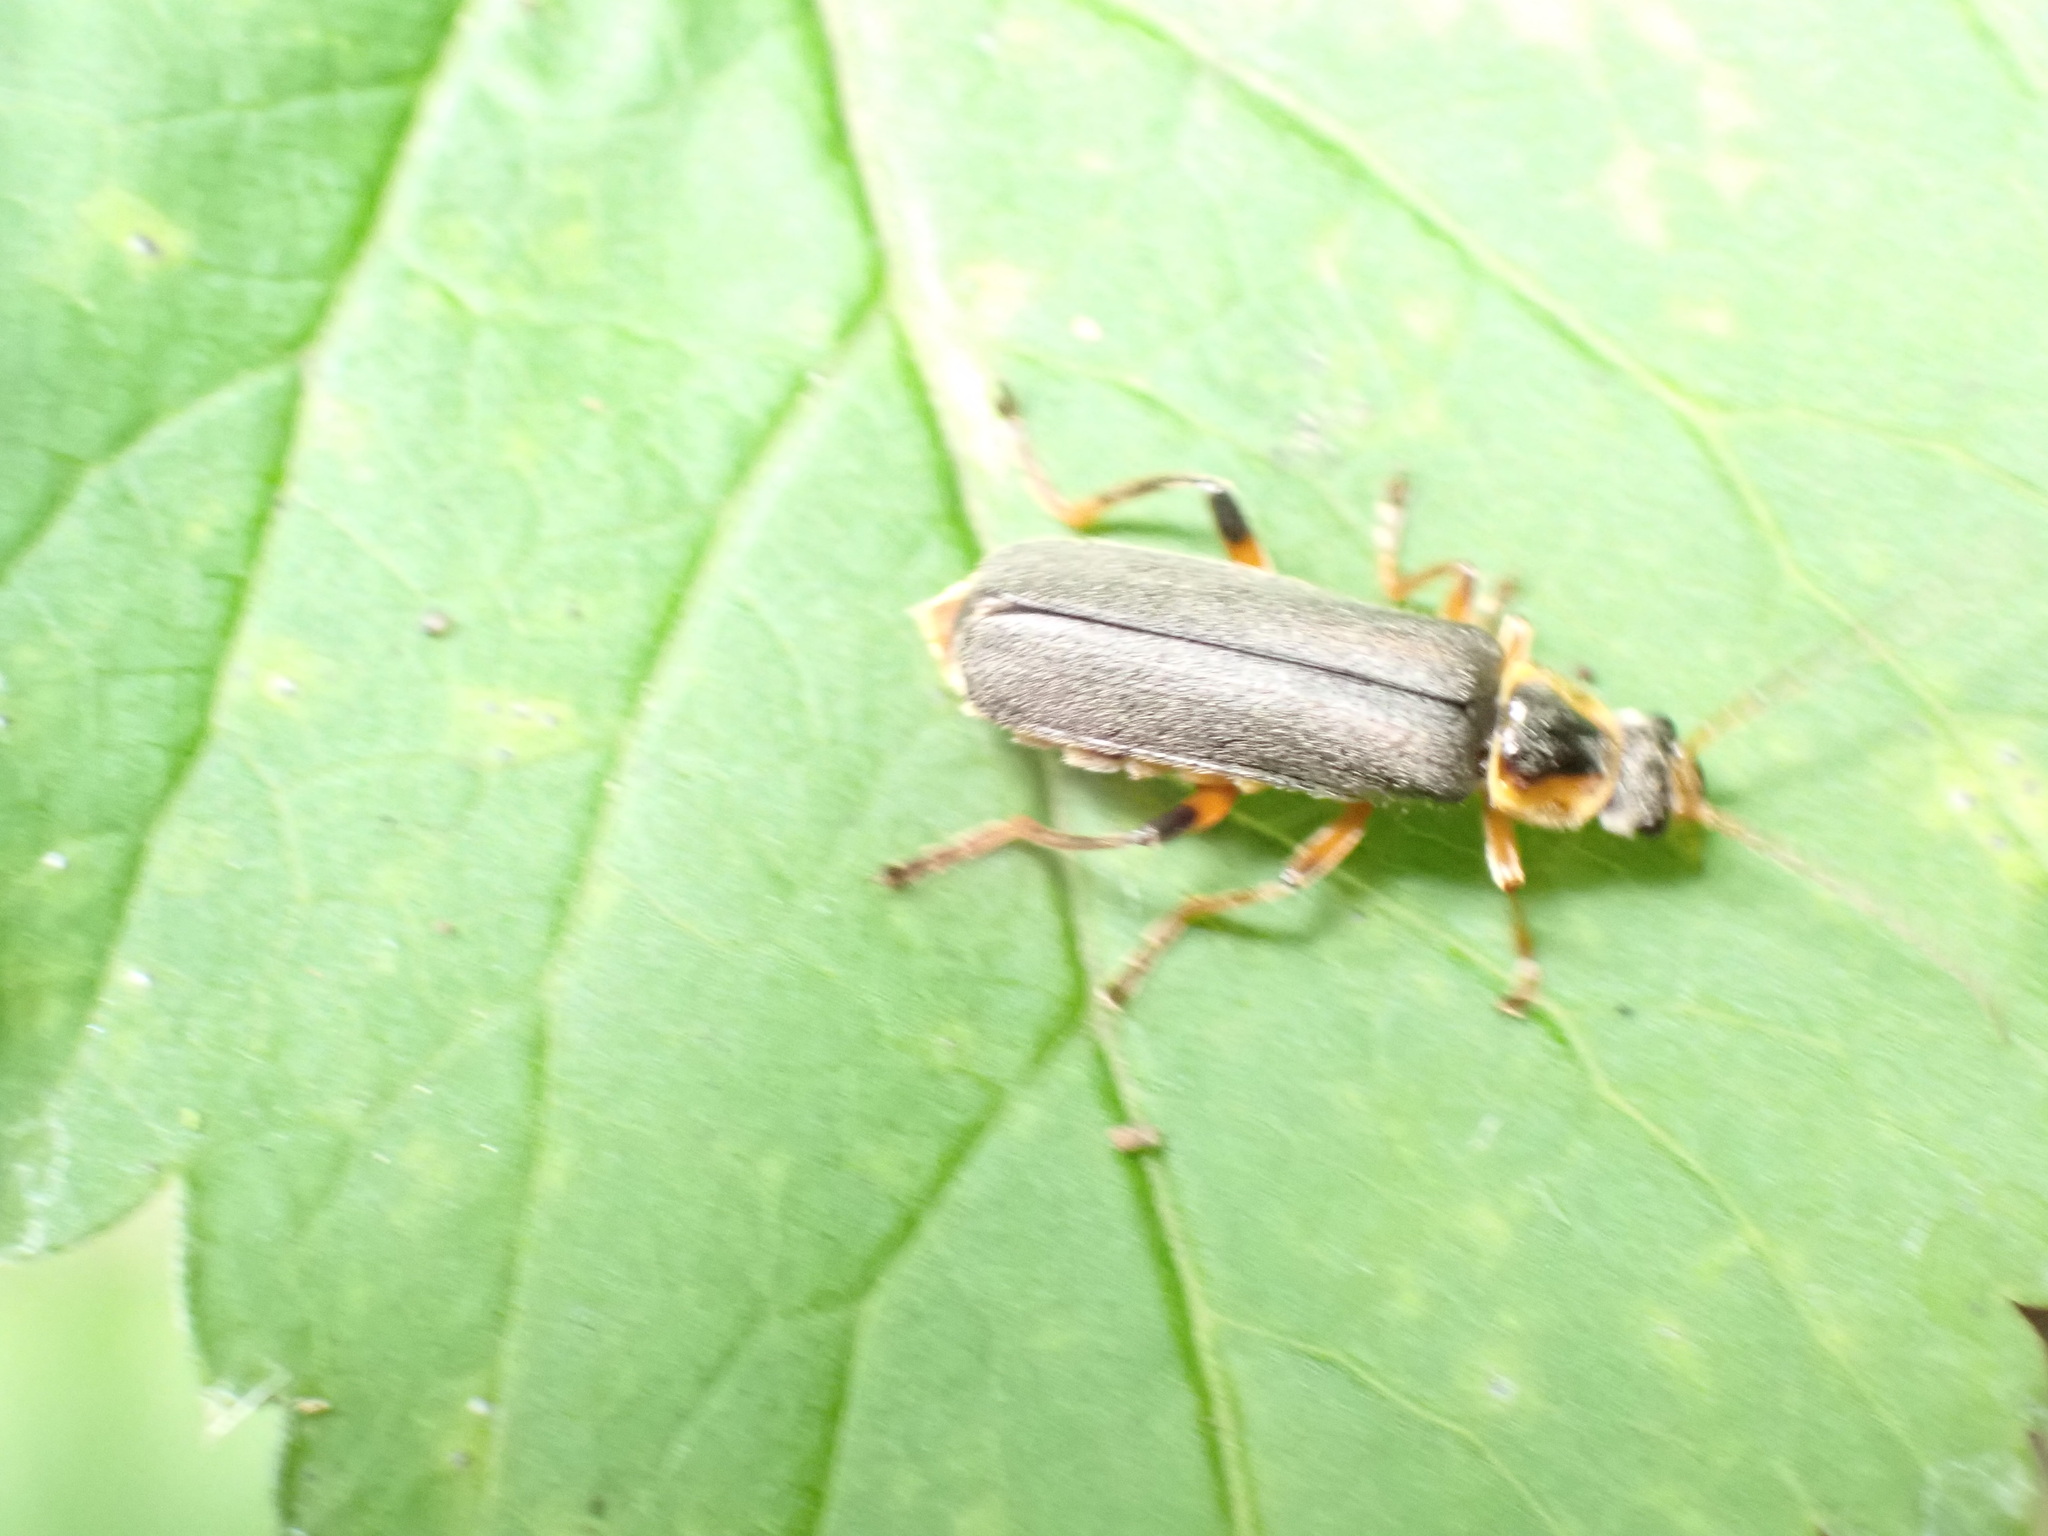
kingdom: Animalia
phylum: Arthropoda
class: Insecta
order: Coleoptera
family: Cantharidae
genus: Cantharis
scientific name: Cantharis nigricans
